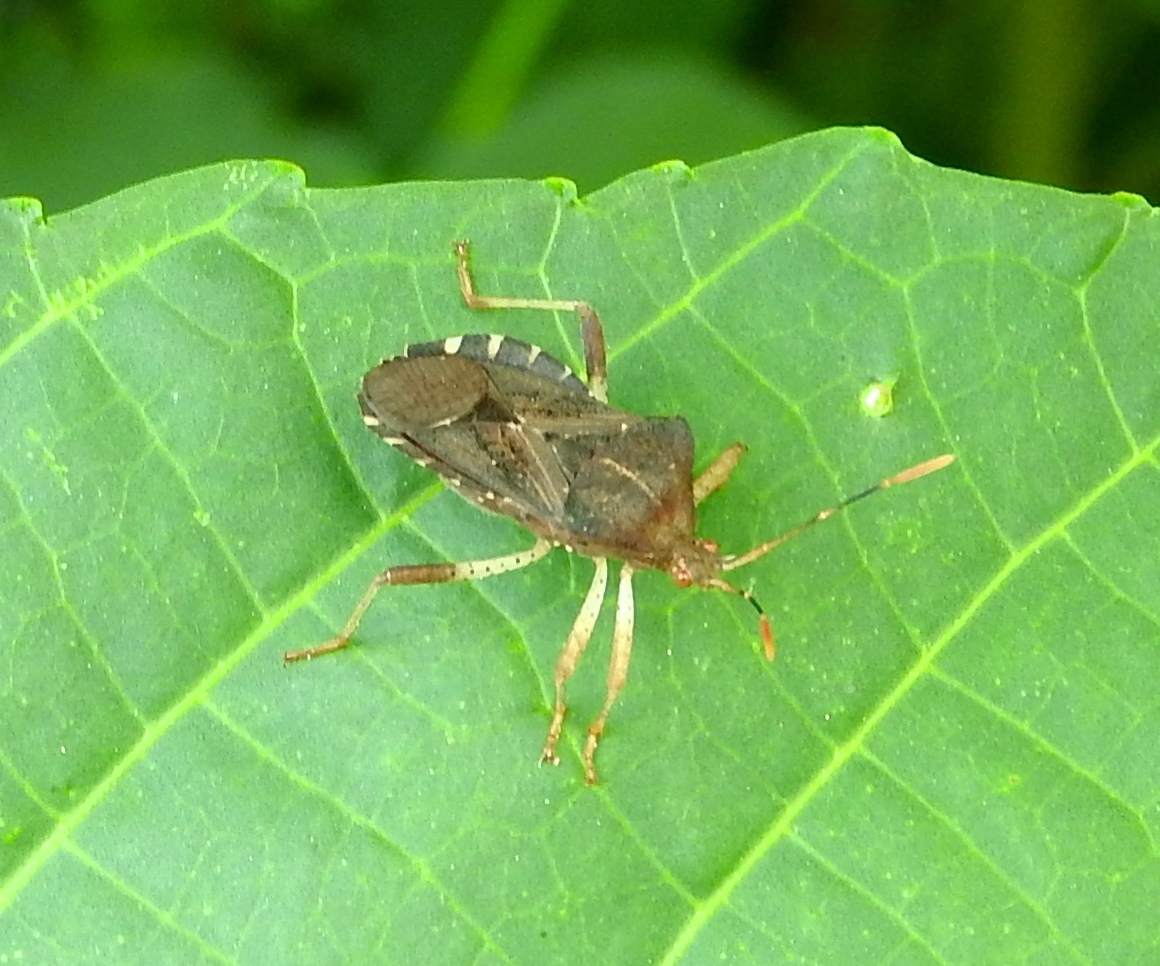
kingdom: Animalia
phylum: Arthropoda
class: Insecta
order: Hemiptera
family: Coreidae
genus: Anasa
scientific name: Anasa scorbutica
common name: Squash bug
